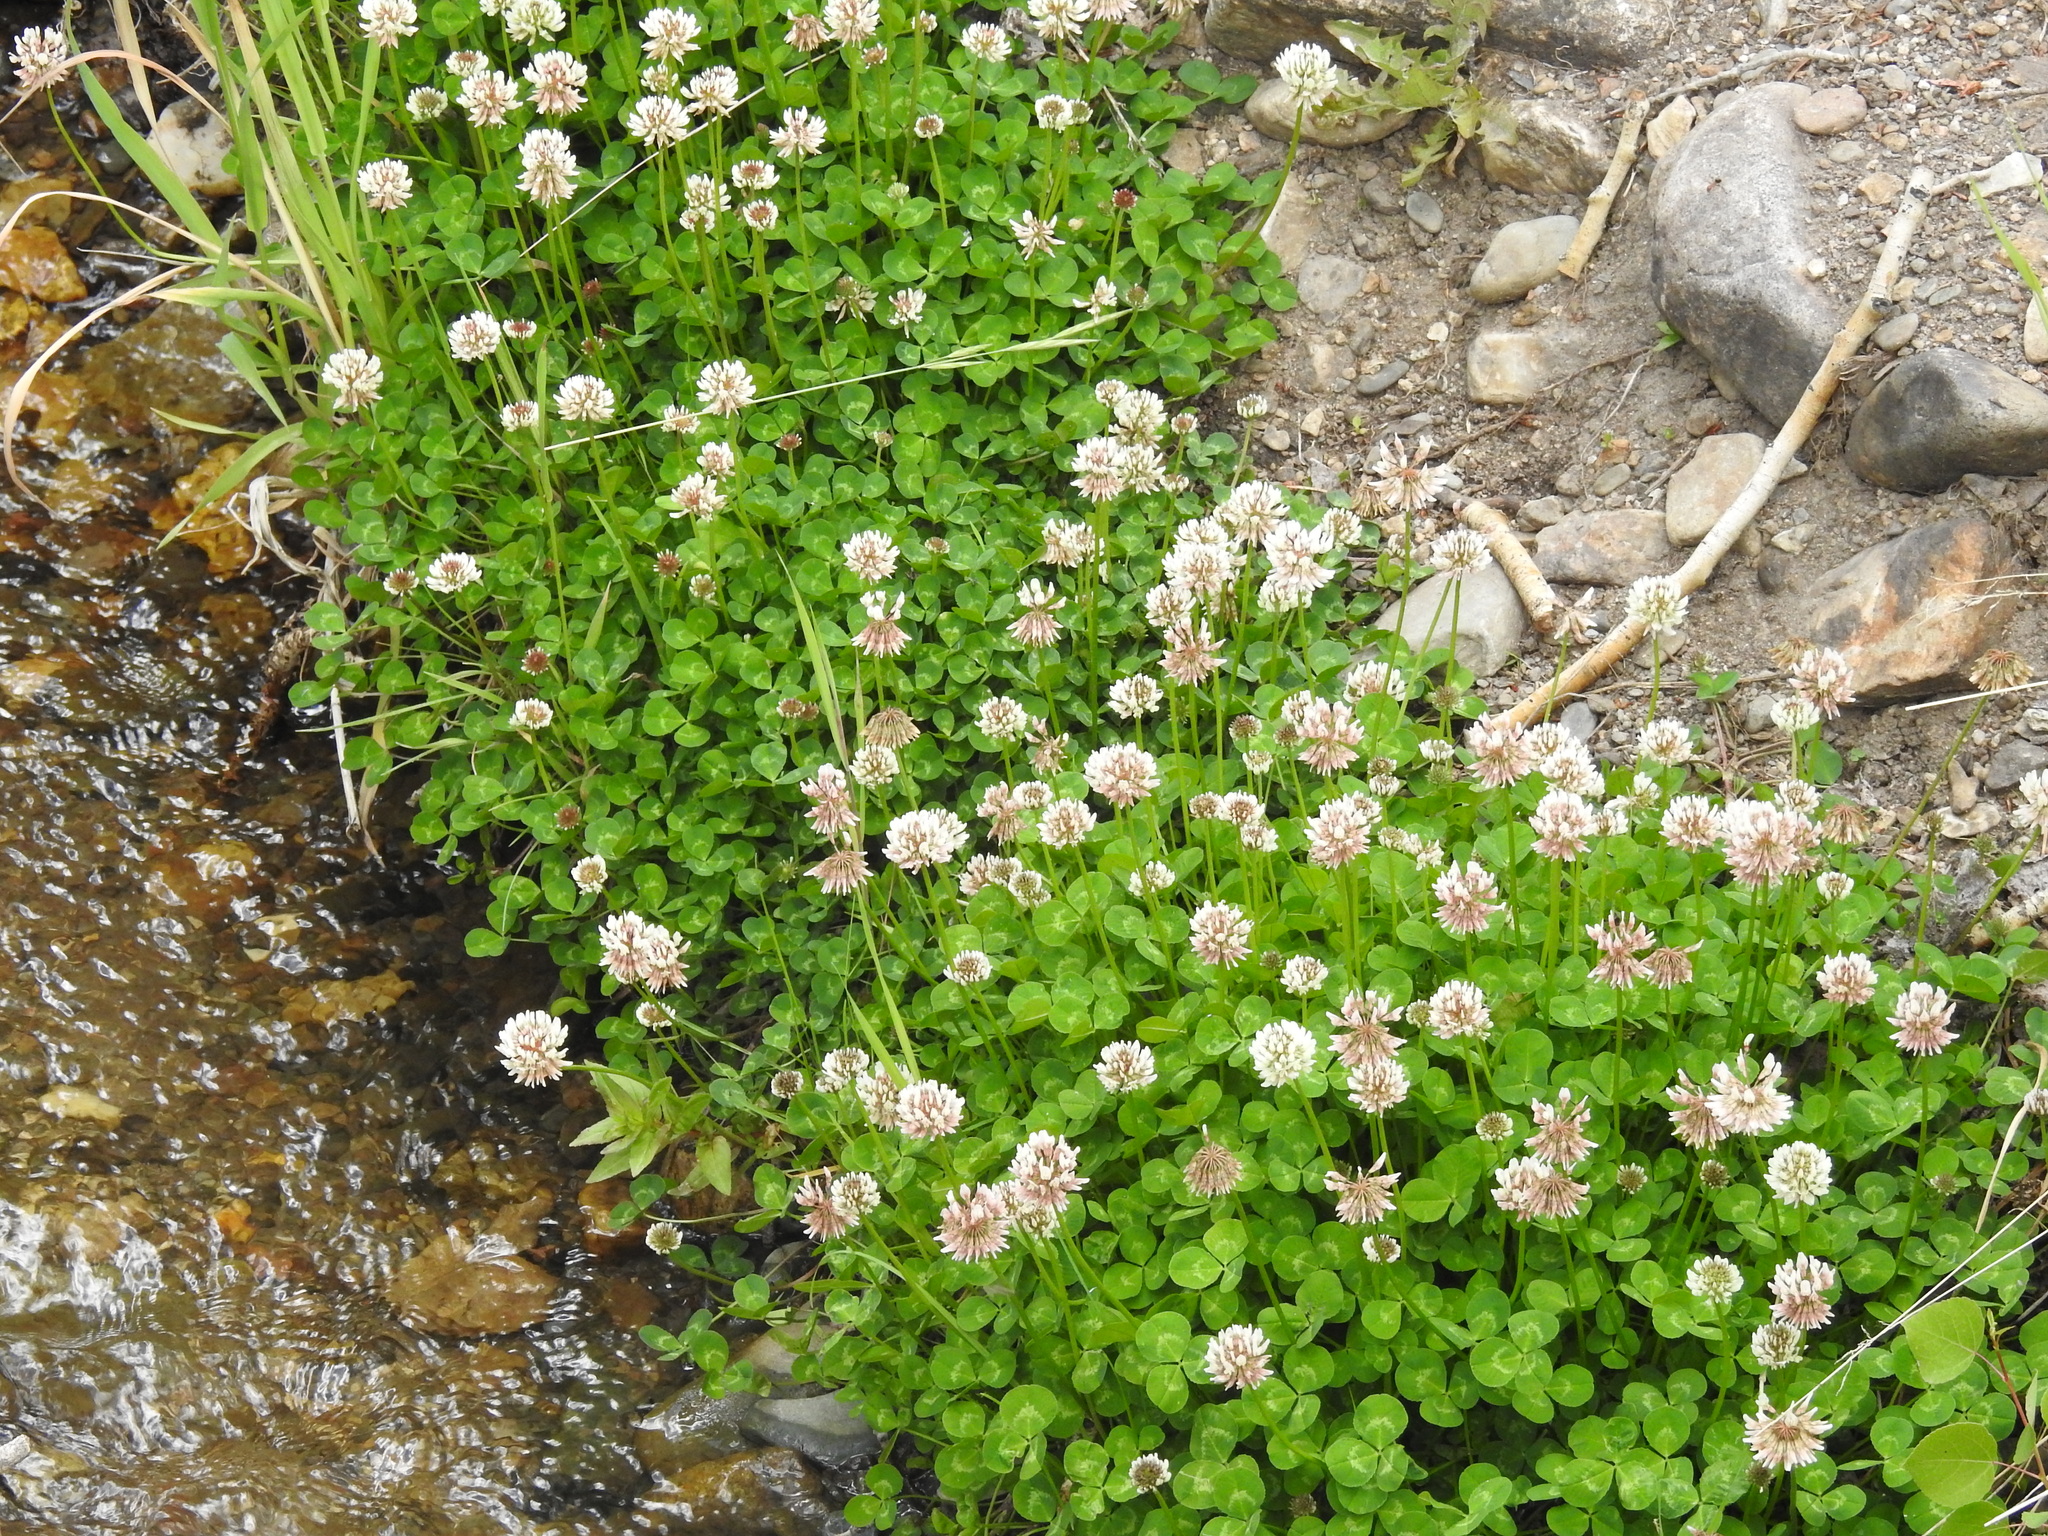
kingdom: Plantae
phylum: Tracheophyta
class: Magnoliopsida
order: Fabales
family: Fabaceae
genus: Trifolium
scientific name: Trifolium repens
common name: White clover
